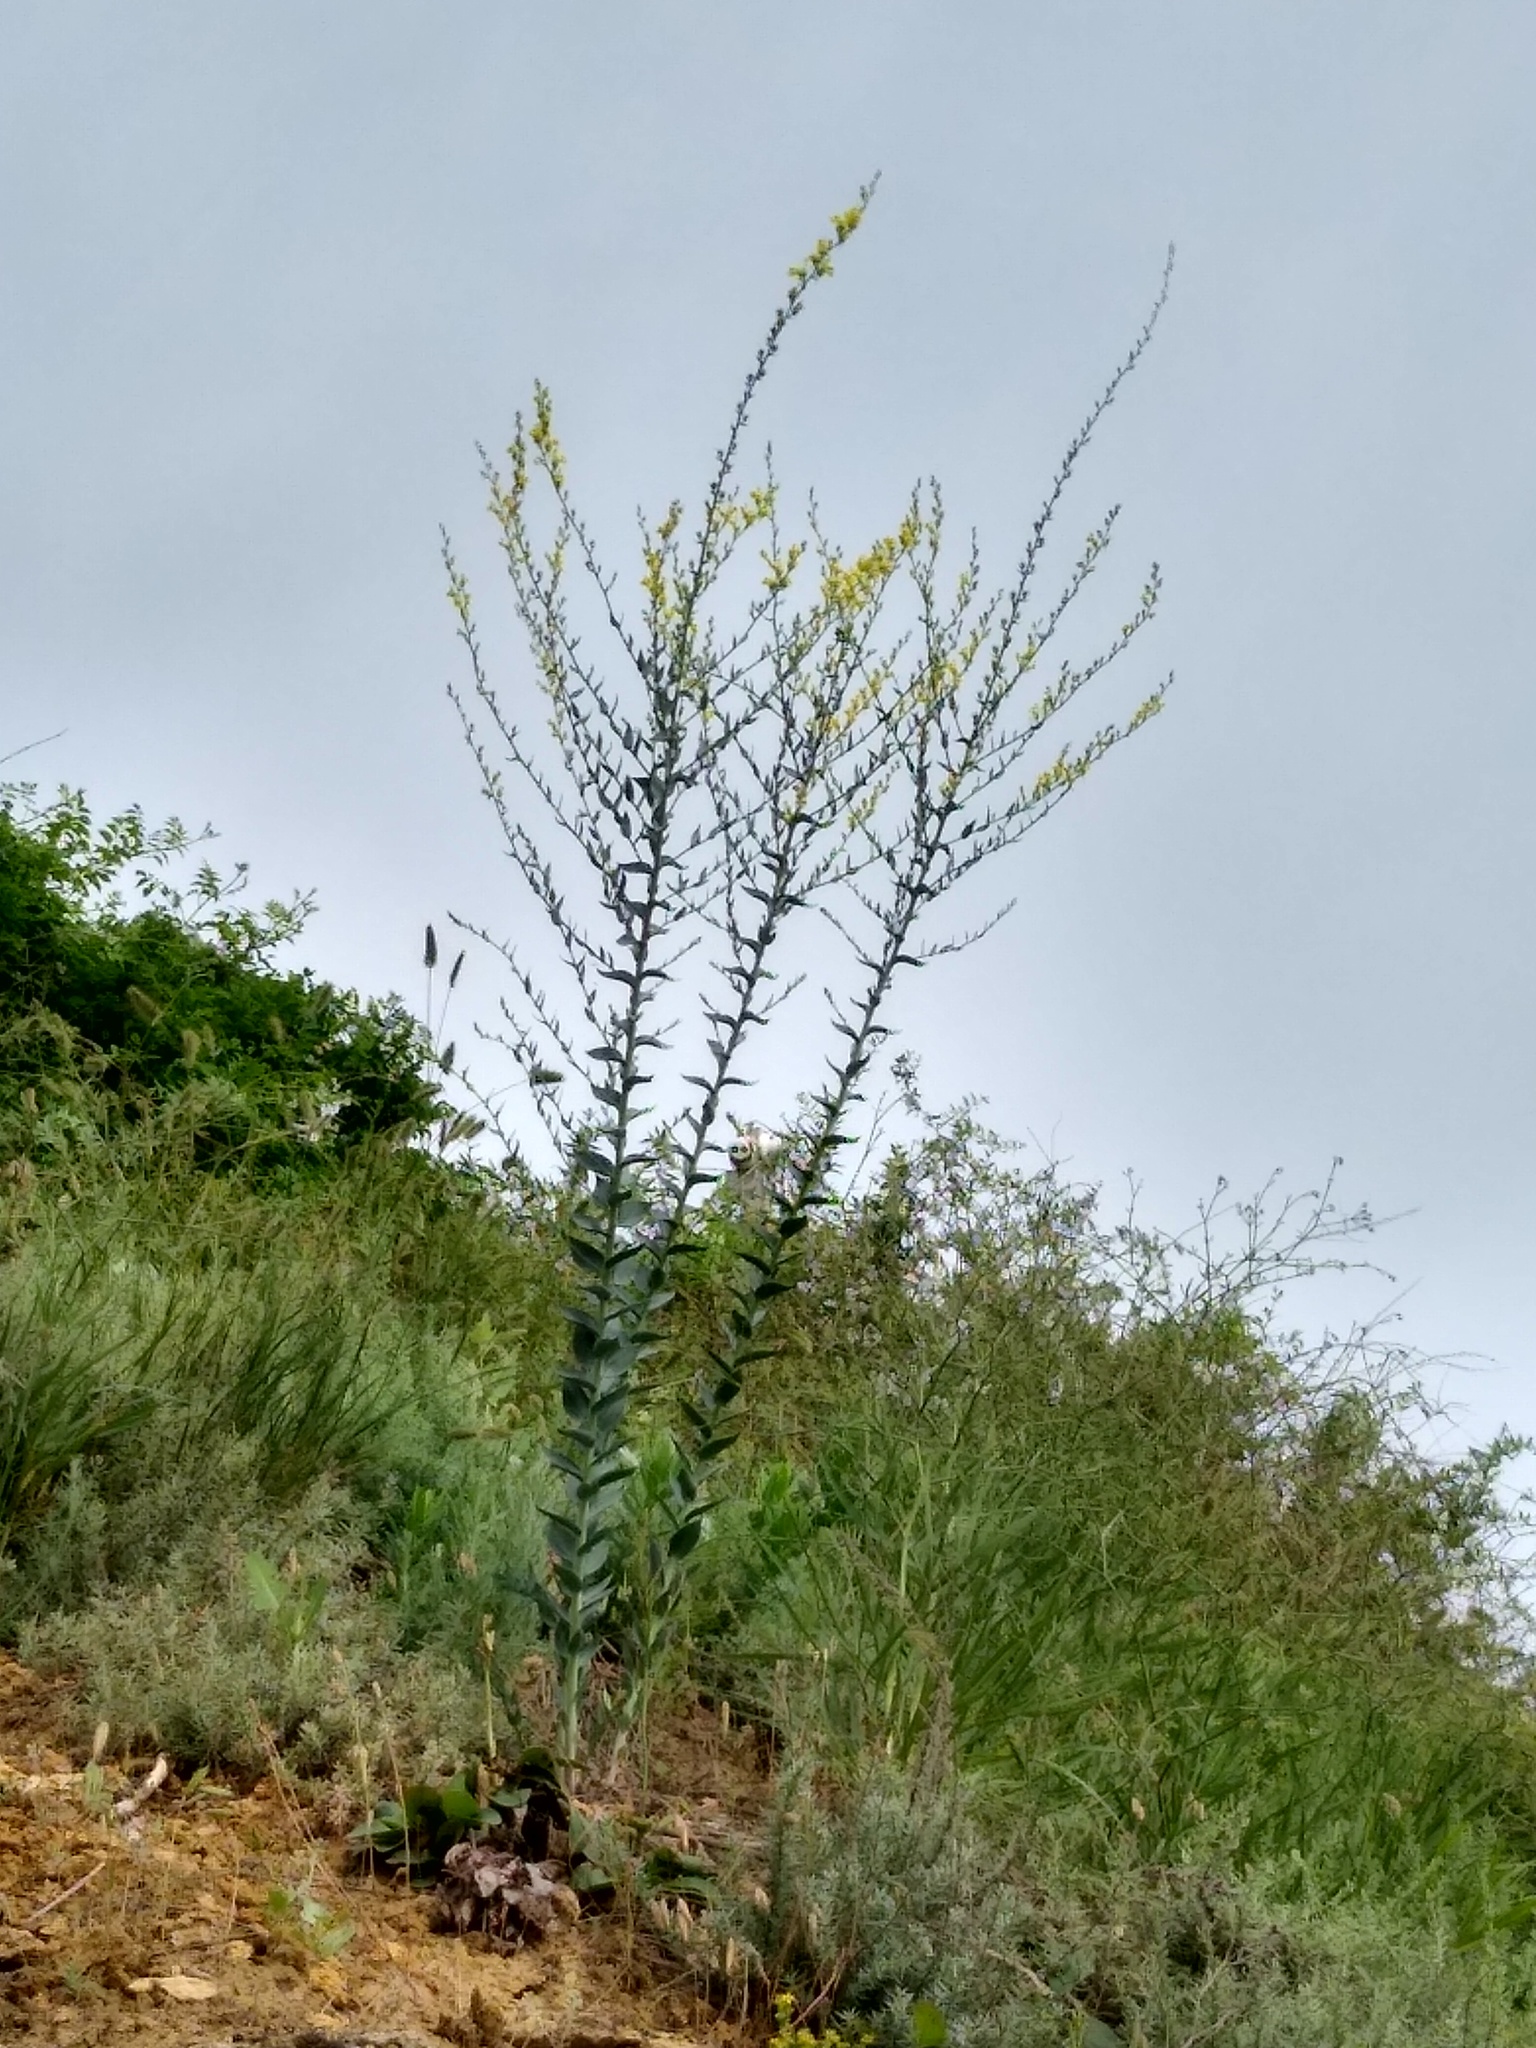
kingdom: Plantae
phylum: Tracheophyta
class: Magnoliopsida
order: Lamiales
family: Plantaginaceae
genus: Linaria
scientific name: Linaria genistifolia
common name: Broomleaf toadflax
